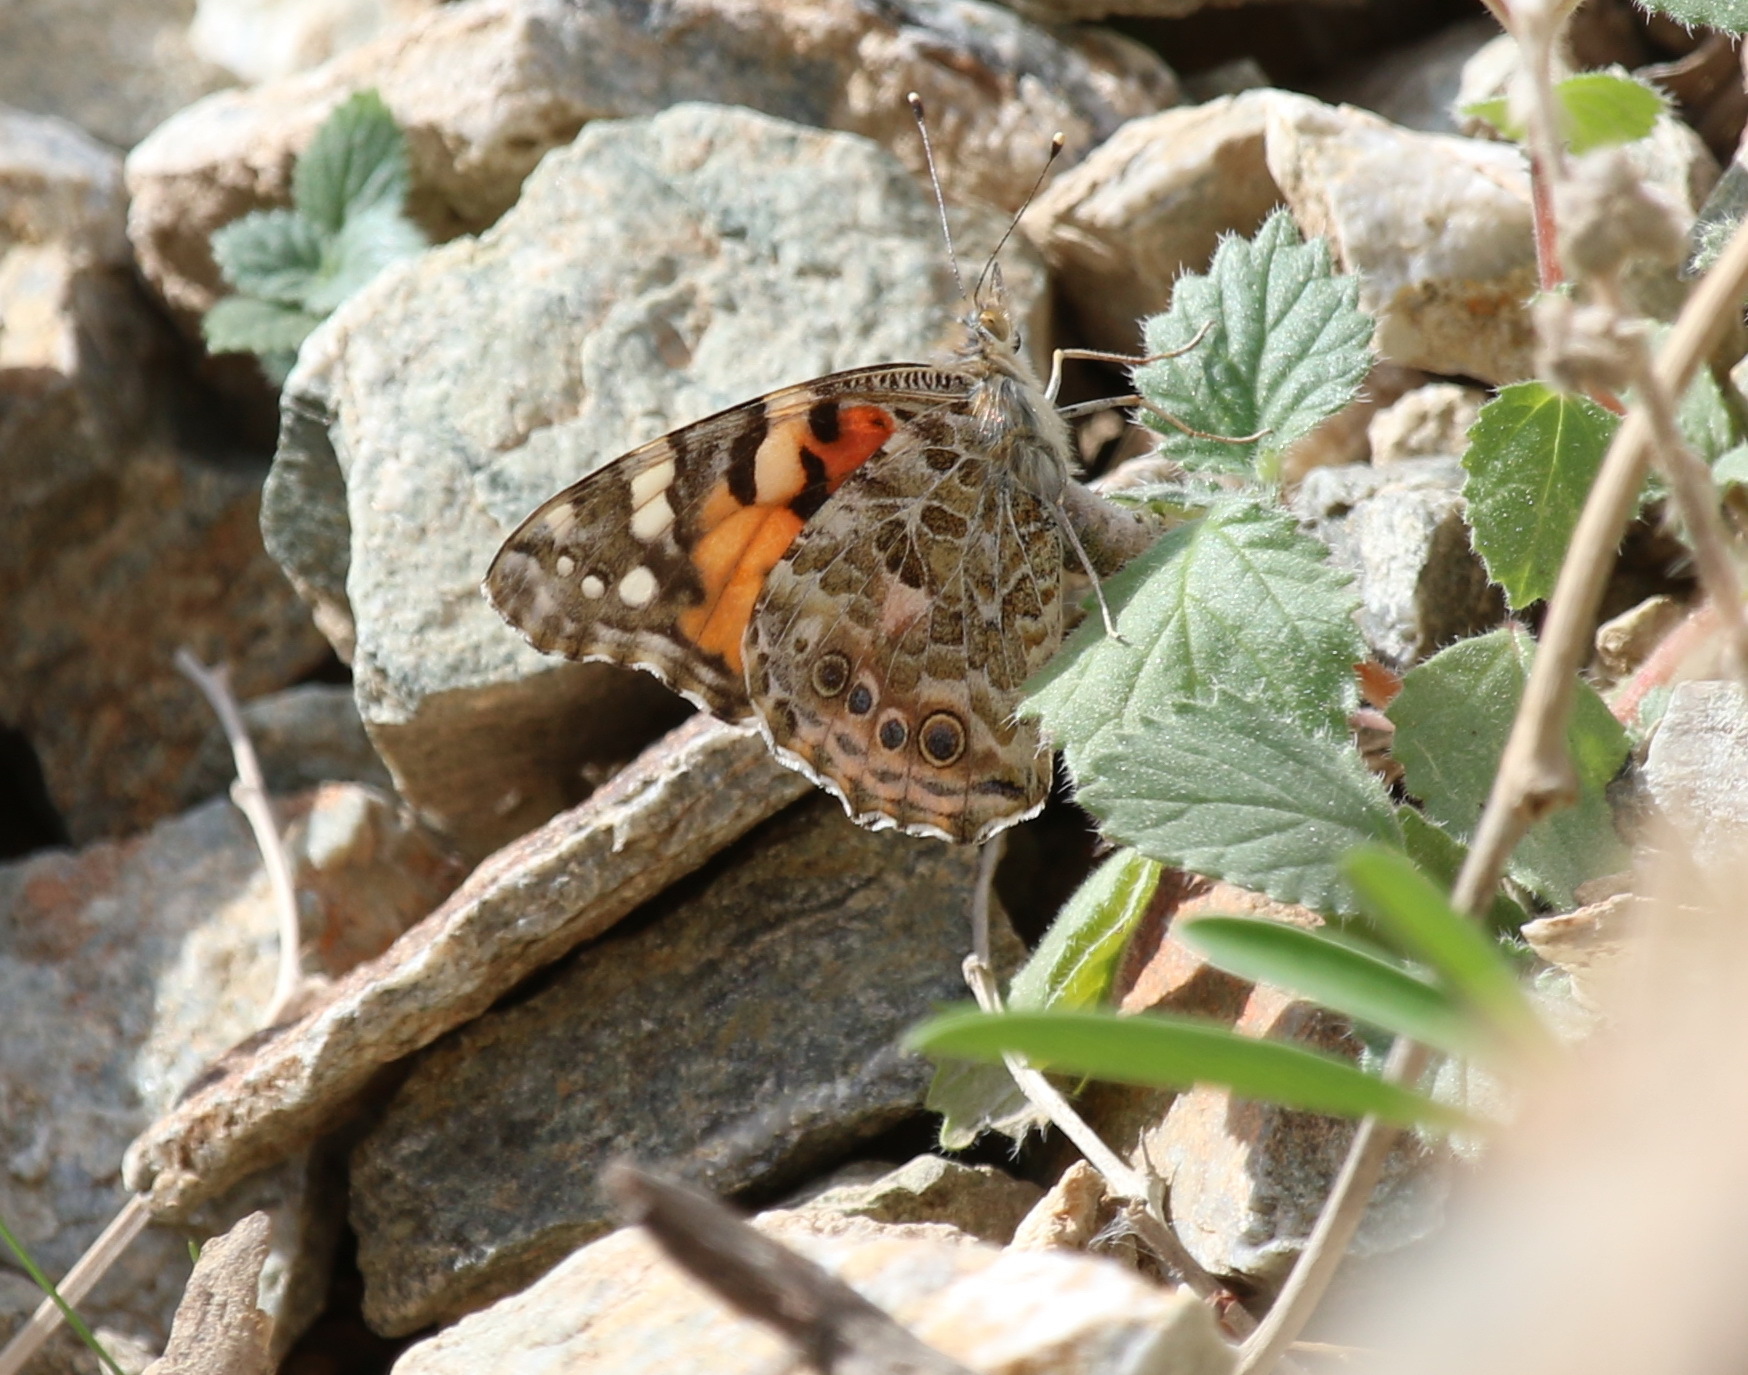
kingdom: Animalia
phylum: Arthropoda
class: Insecta
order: Lepidoptera
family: Nymphalidae
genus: Vanessa
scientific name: Vanessa cardui
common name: Painted lady
